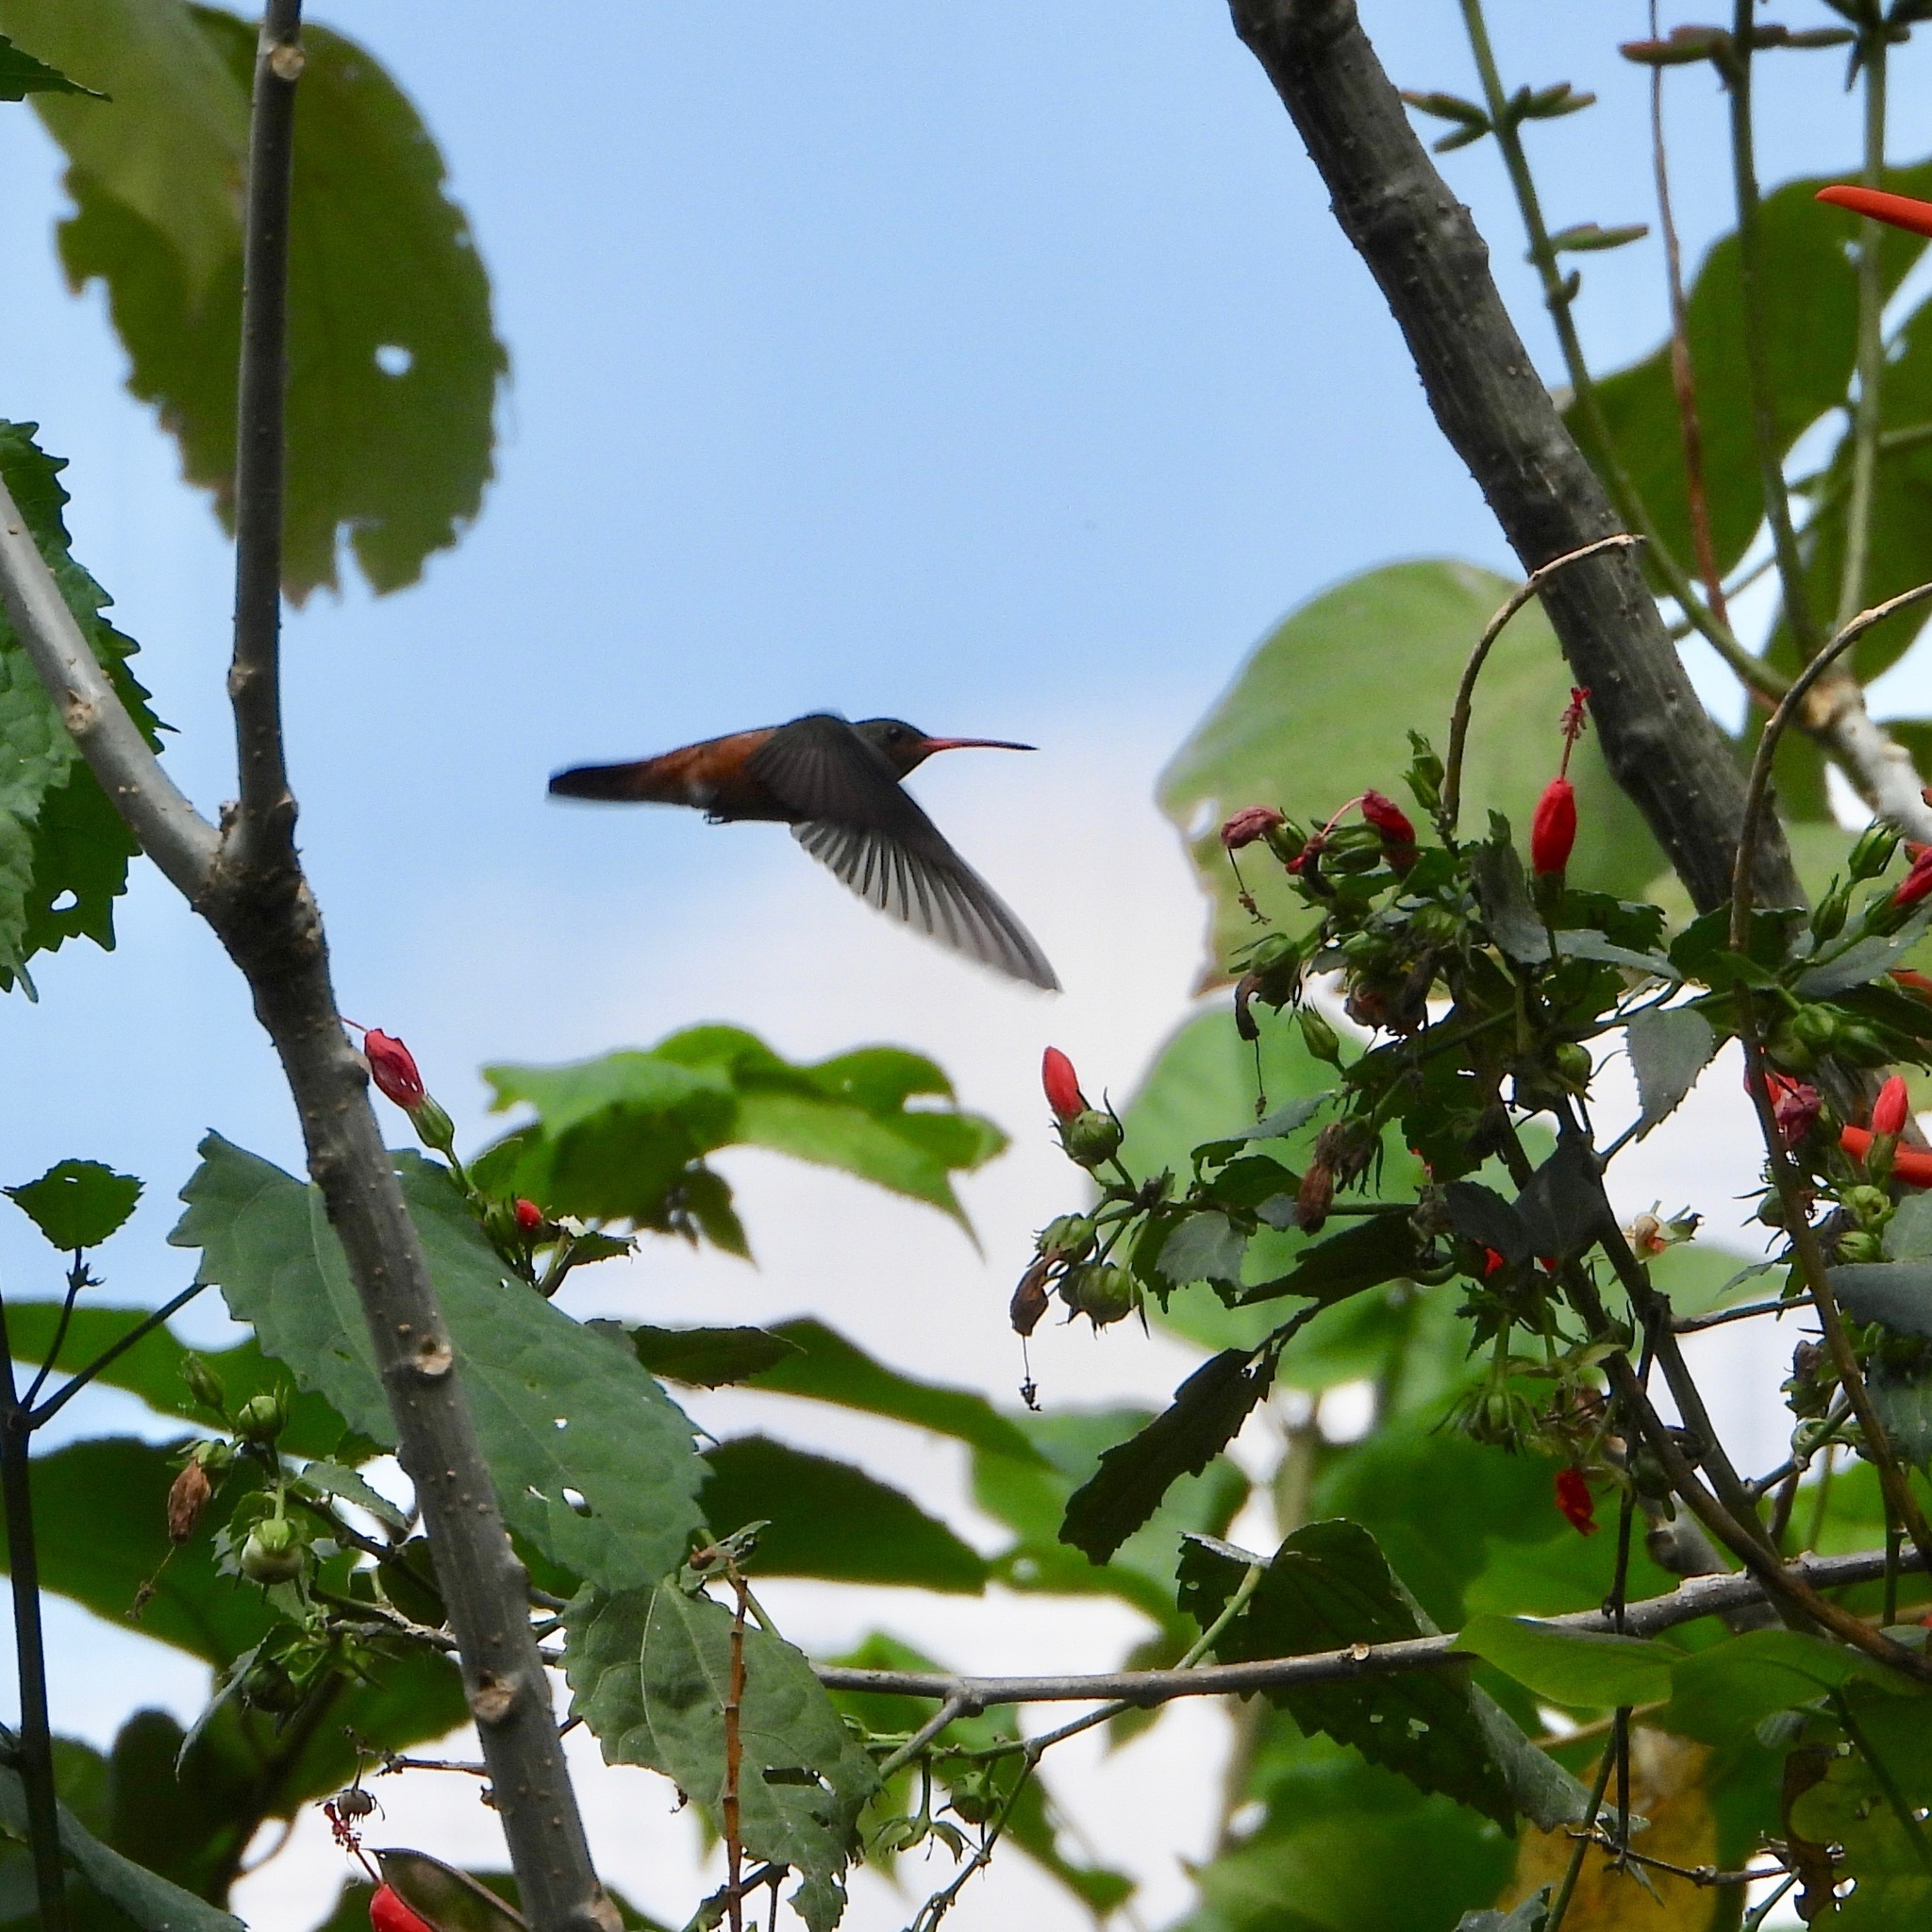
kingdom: Animalia
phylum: Chordata
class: Aves
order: Apodiformes
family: Trochilidae
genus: Amazilia
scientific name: Amazilia rutila
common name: Cinnamon hummingbird
